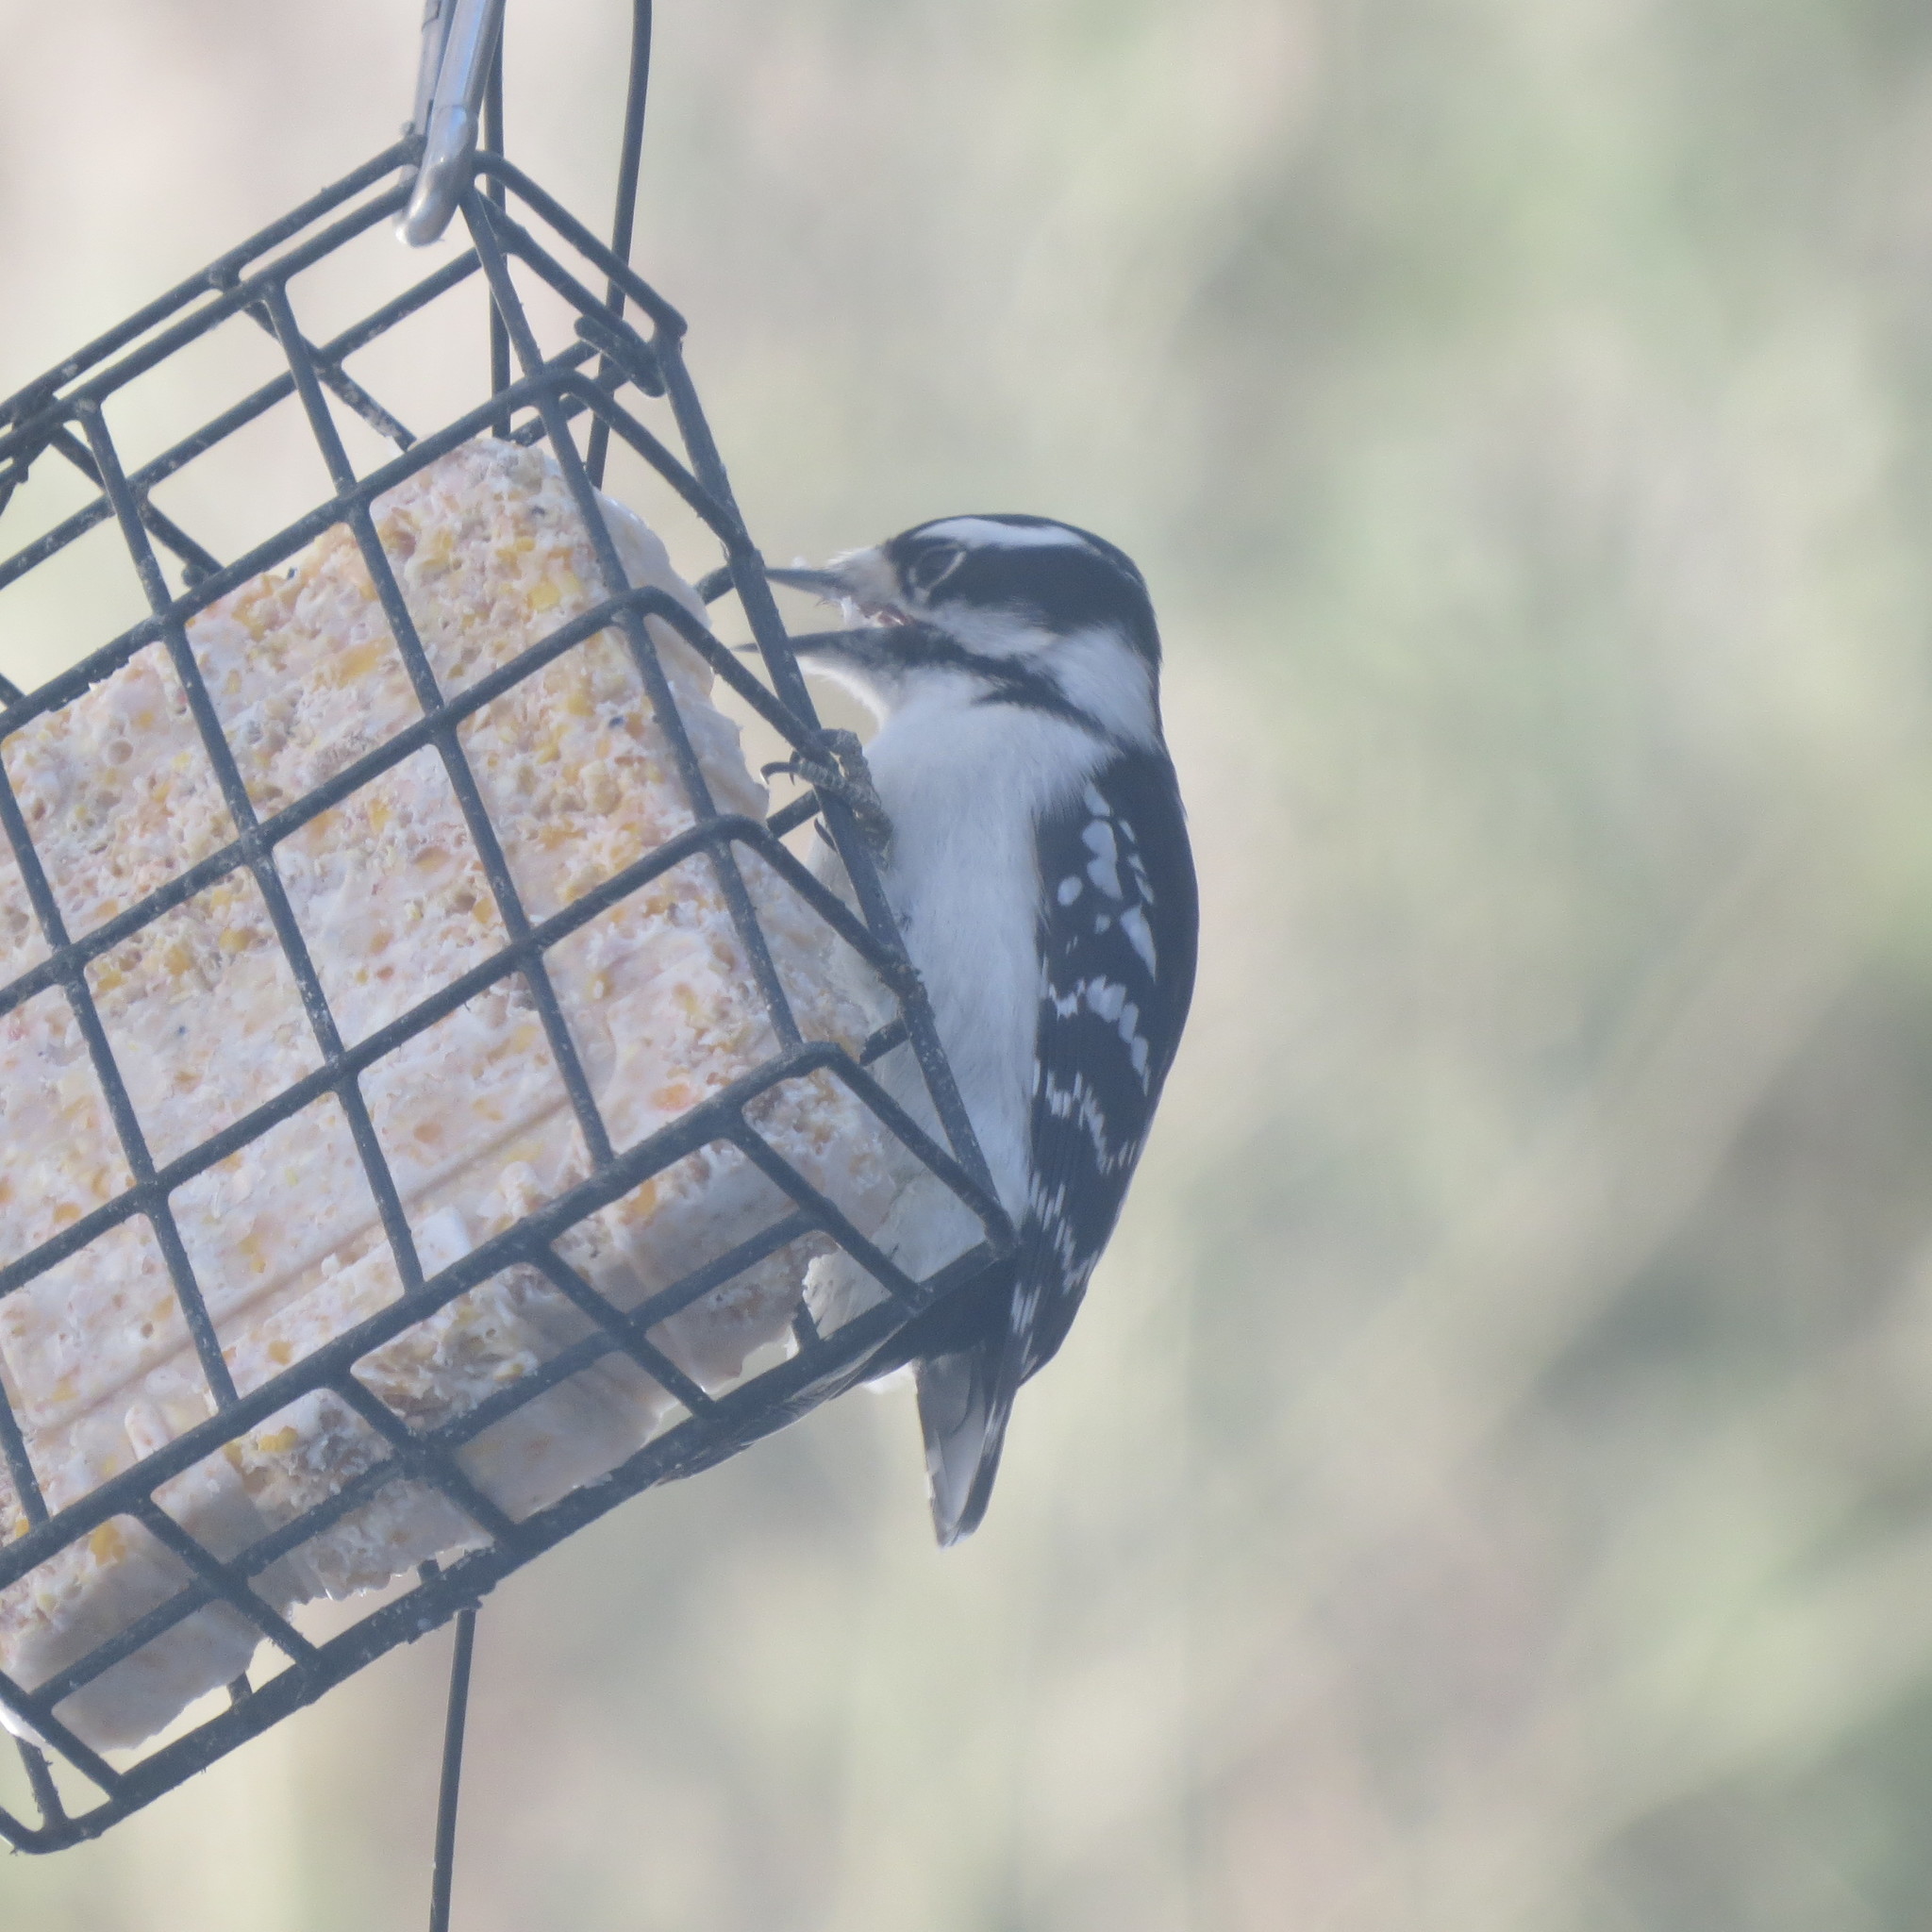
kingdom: Animalia
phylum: Chordata
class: Aves
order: Piciformes
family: Picidae
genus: Dryobates
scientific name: Dryobates pubescens
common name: Downy woodpecker
